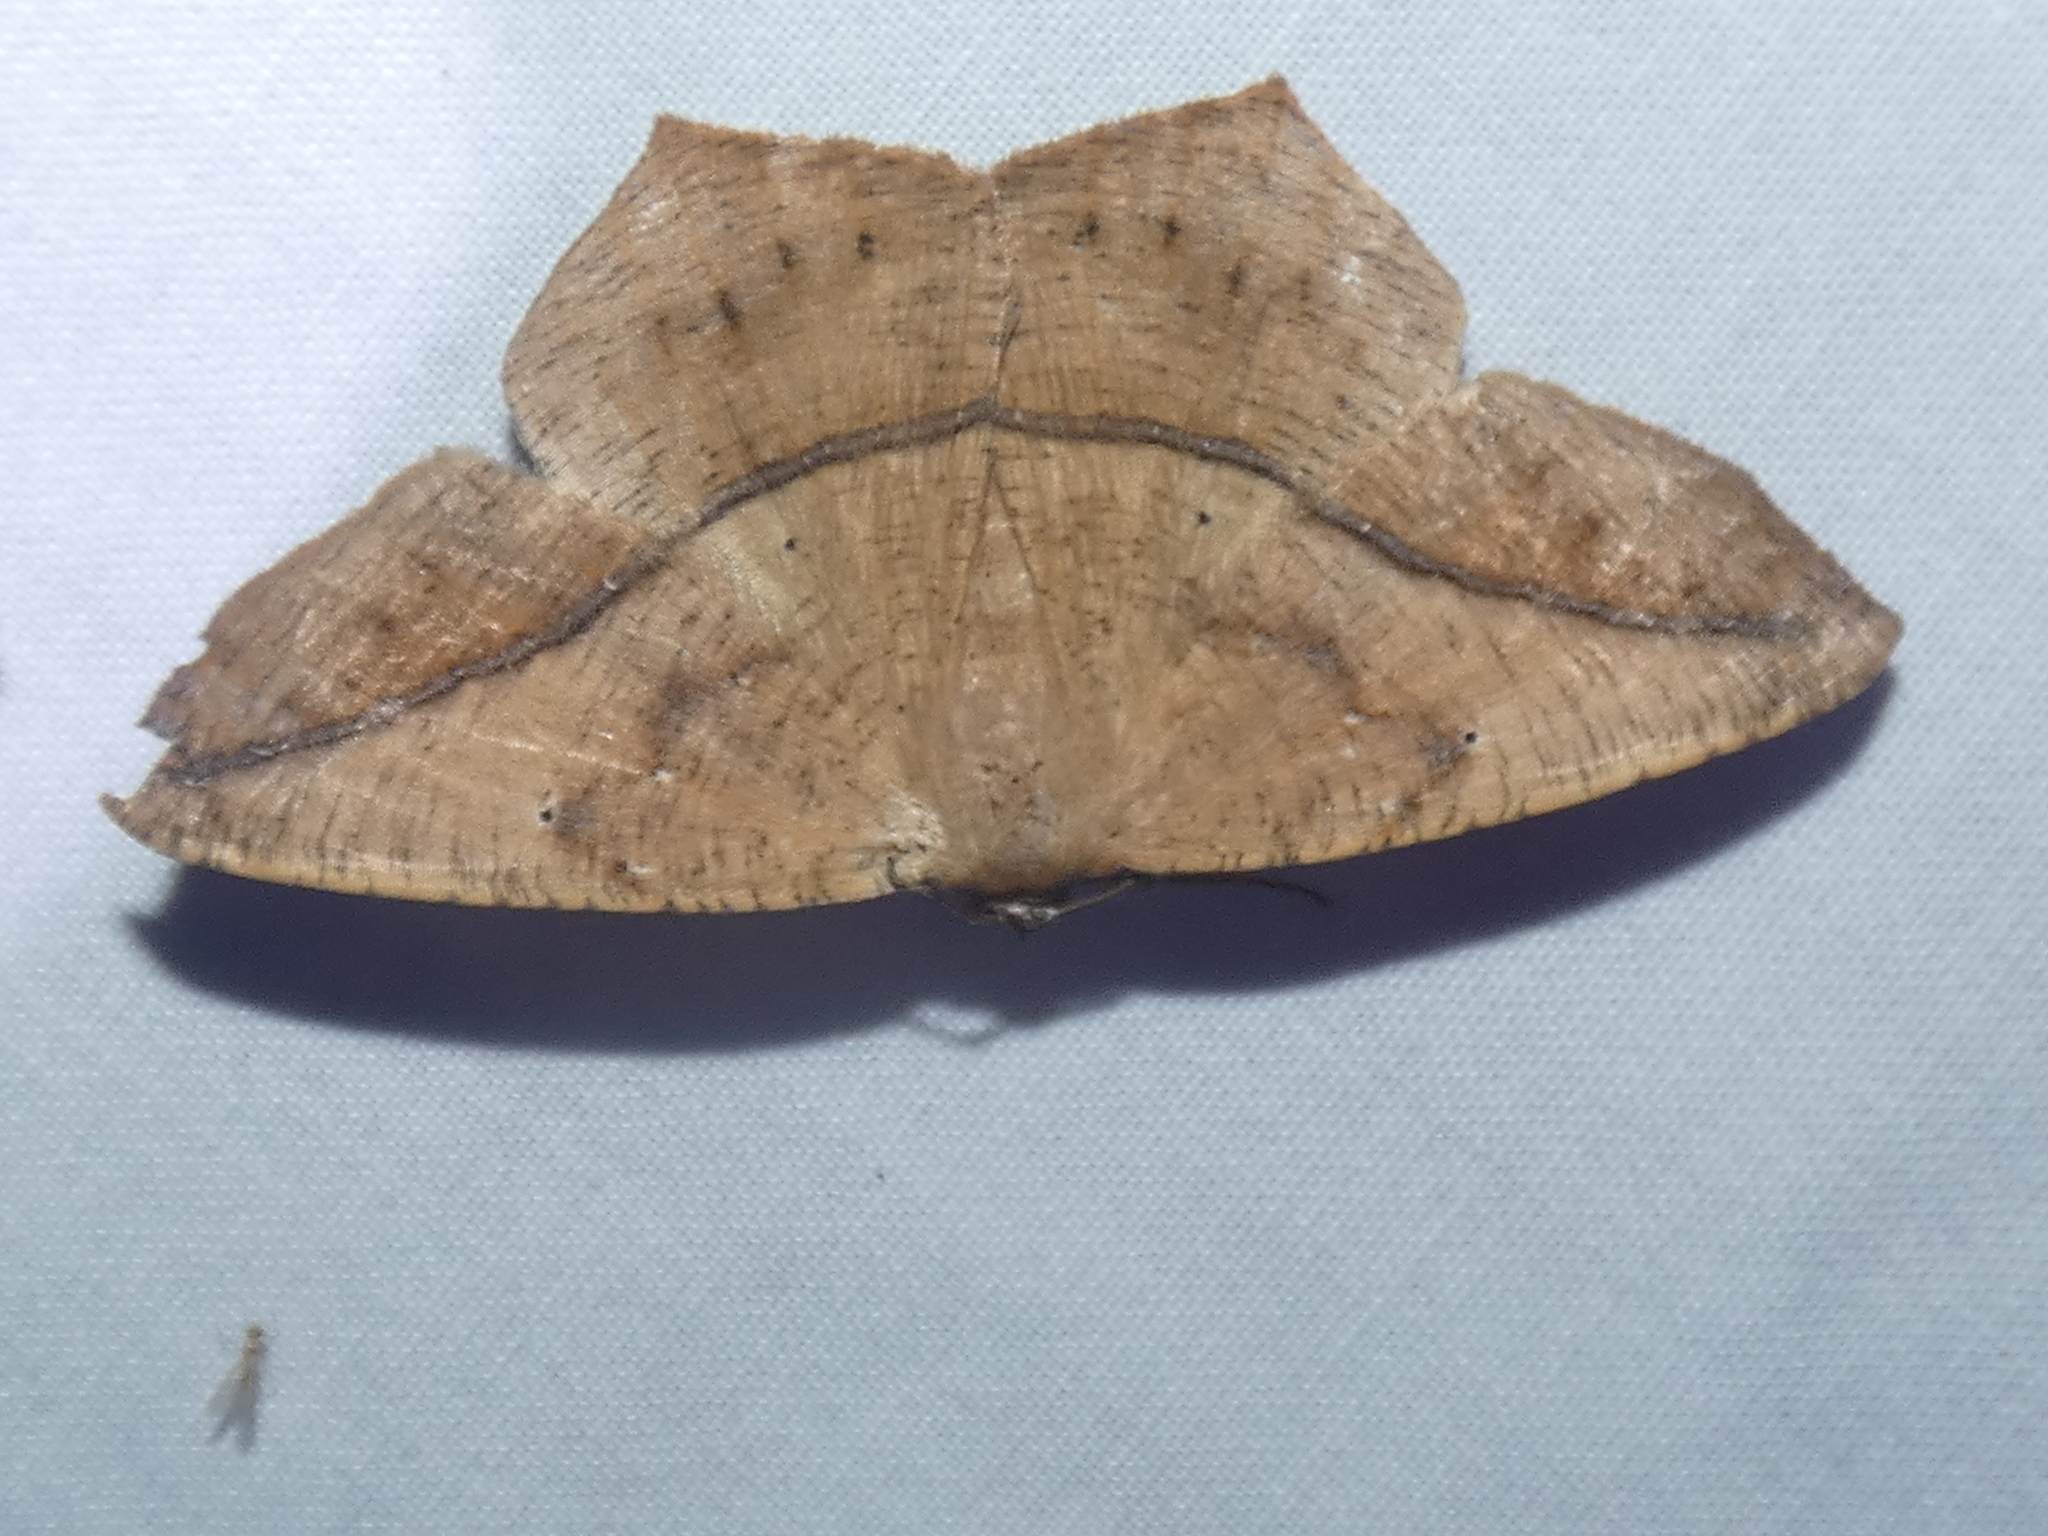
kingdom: Animalia
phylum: Arthropoda
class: Insecta
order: Lepidoptera
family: Geometridae
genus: Prochoerodes
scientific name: Prochoerodes lineola
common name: Large maple spanworm
